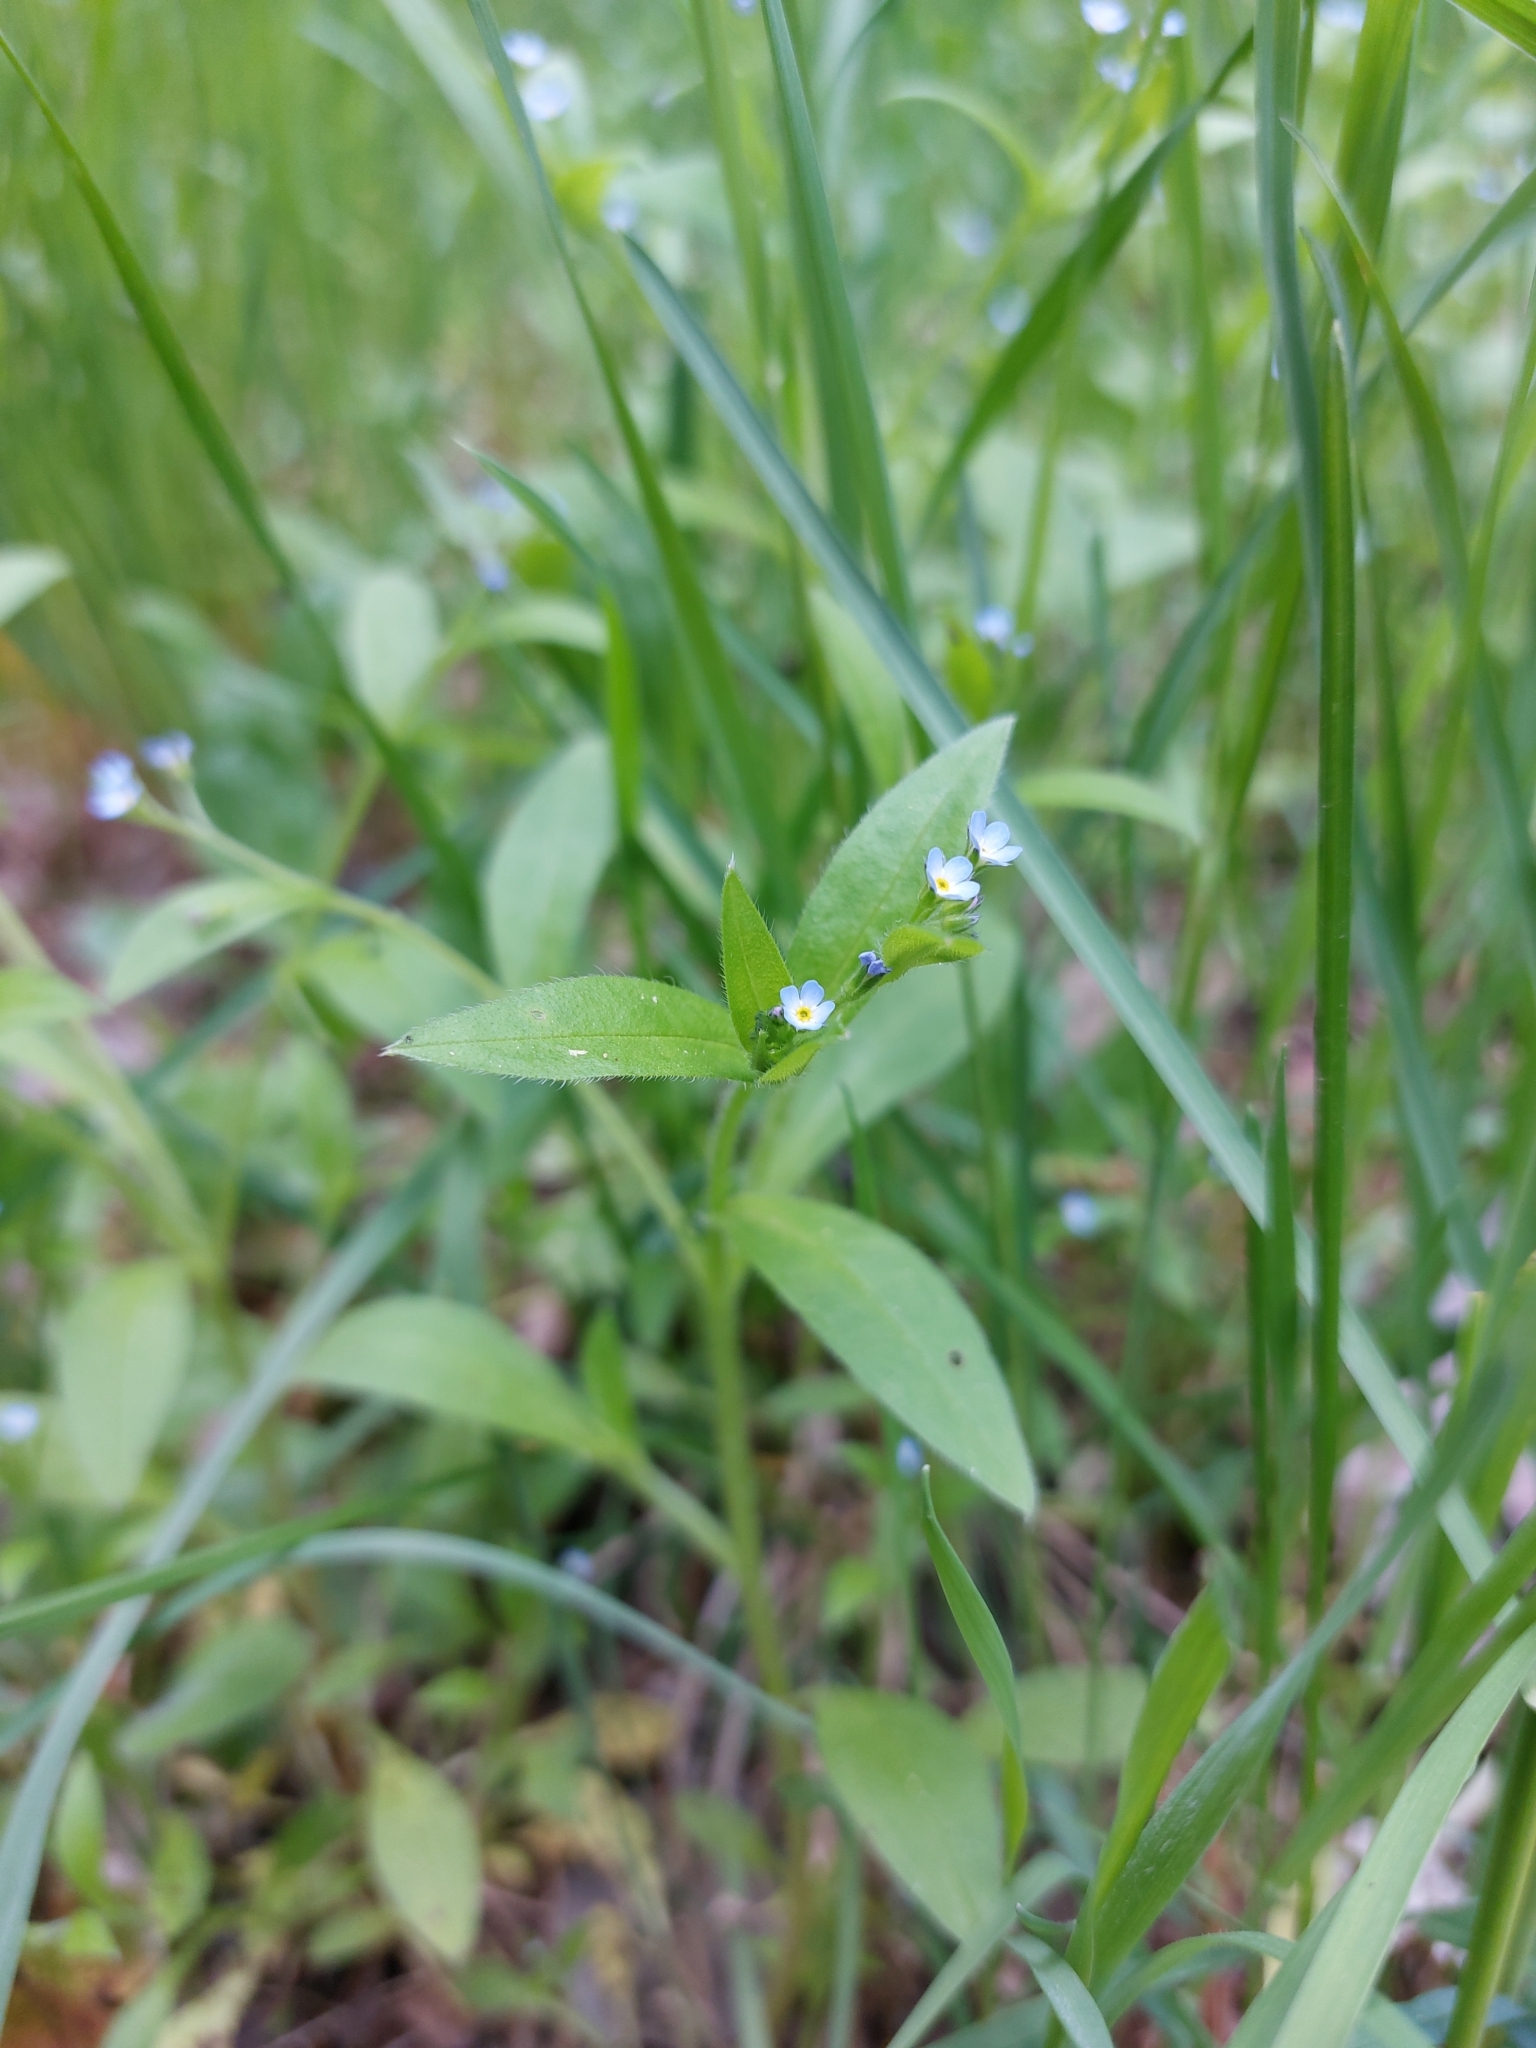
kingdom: Plantae
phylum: Tracheophyta
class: Magnoliopsida
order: Boraginales
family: Boraginaceae
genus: Myosotis
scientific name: Myosotis sparsiflora
